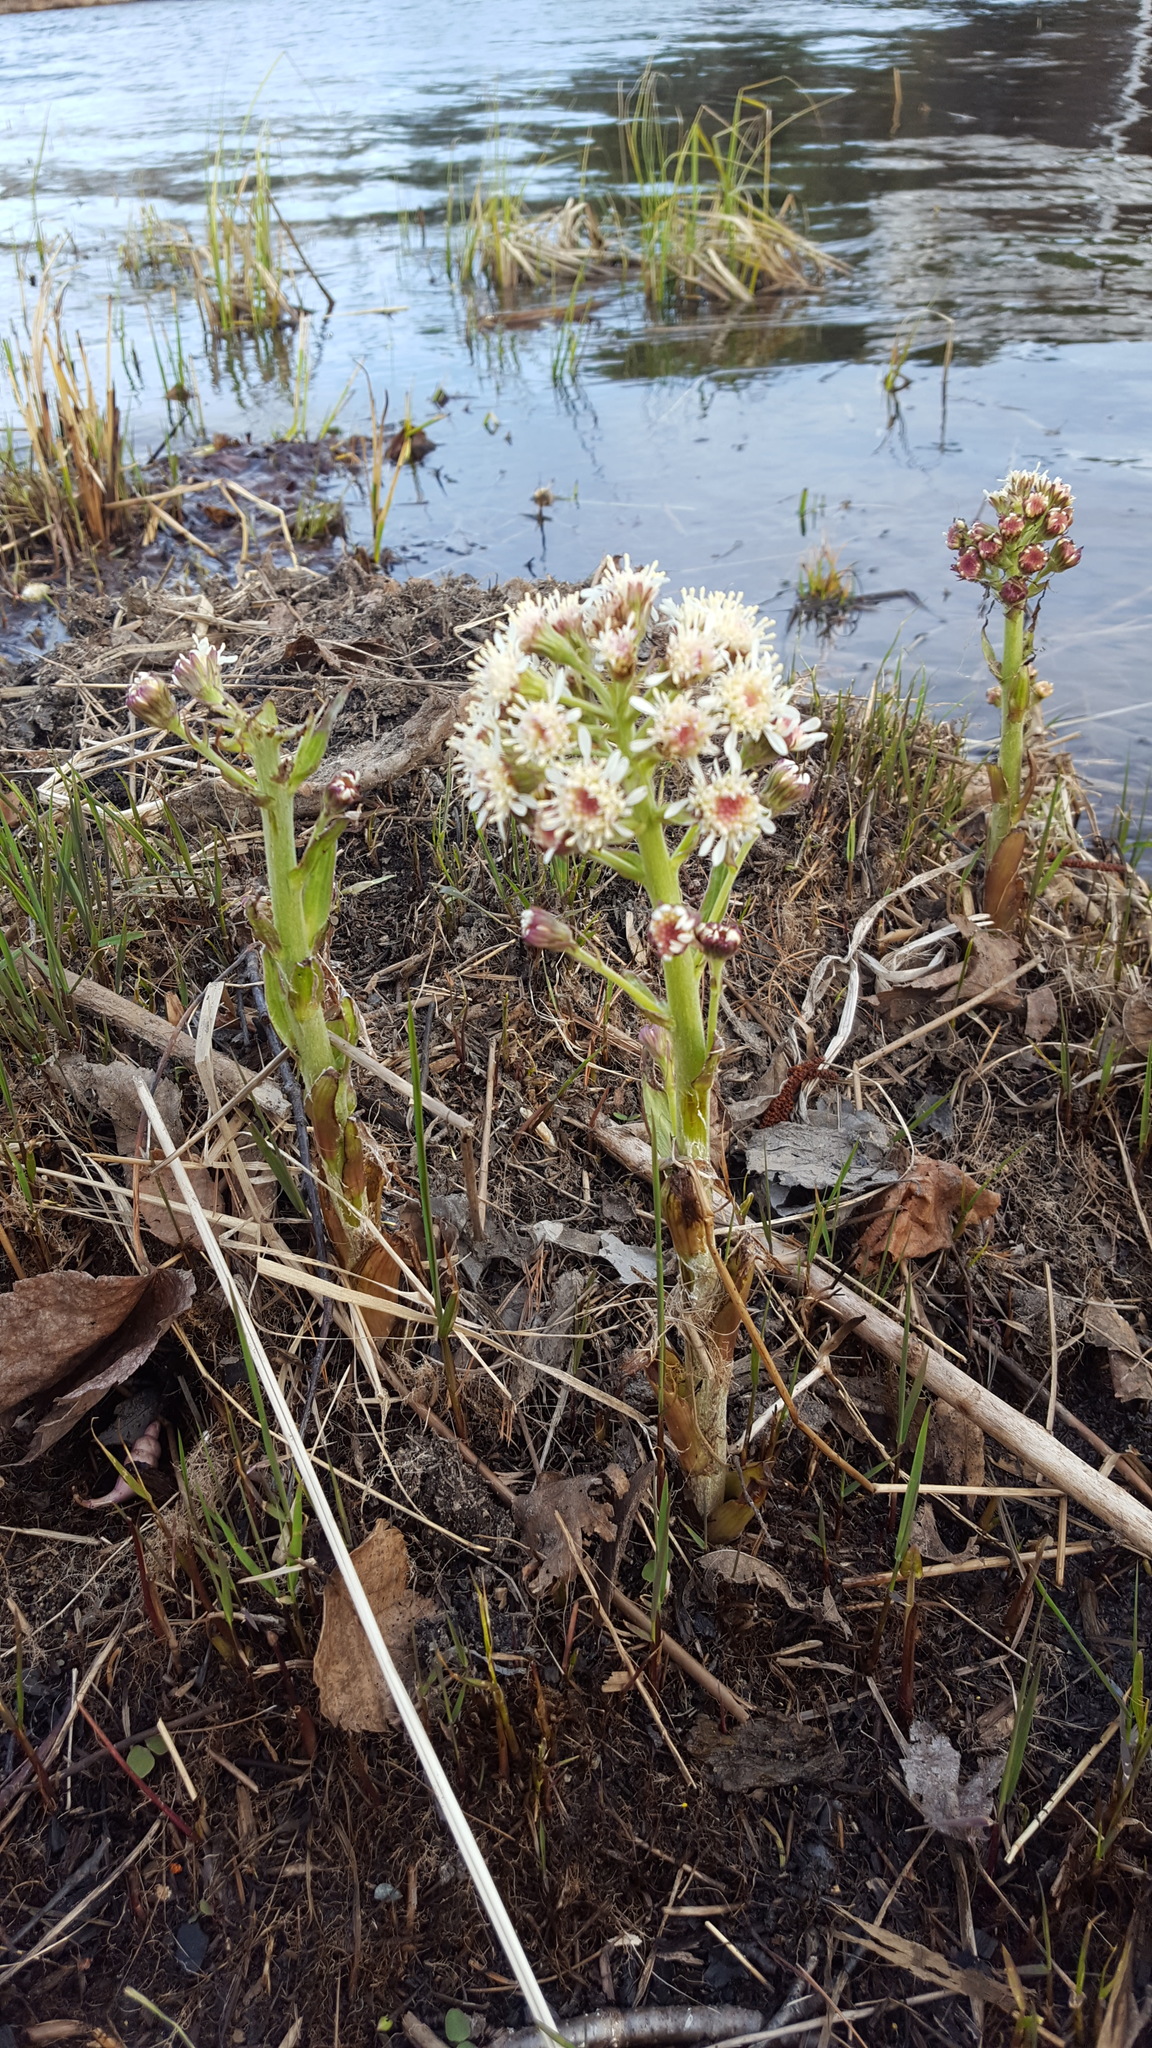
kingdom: Plantae
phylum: Tracheophyta
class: Magnoliopsida
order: Asterales
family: Asteraceae
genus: Petasites
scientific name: Petasites frigidus
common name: Arctic butterbur
